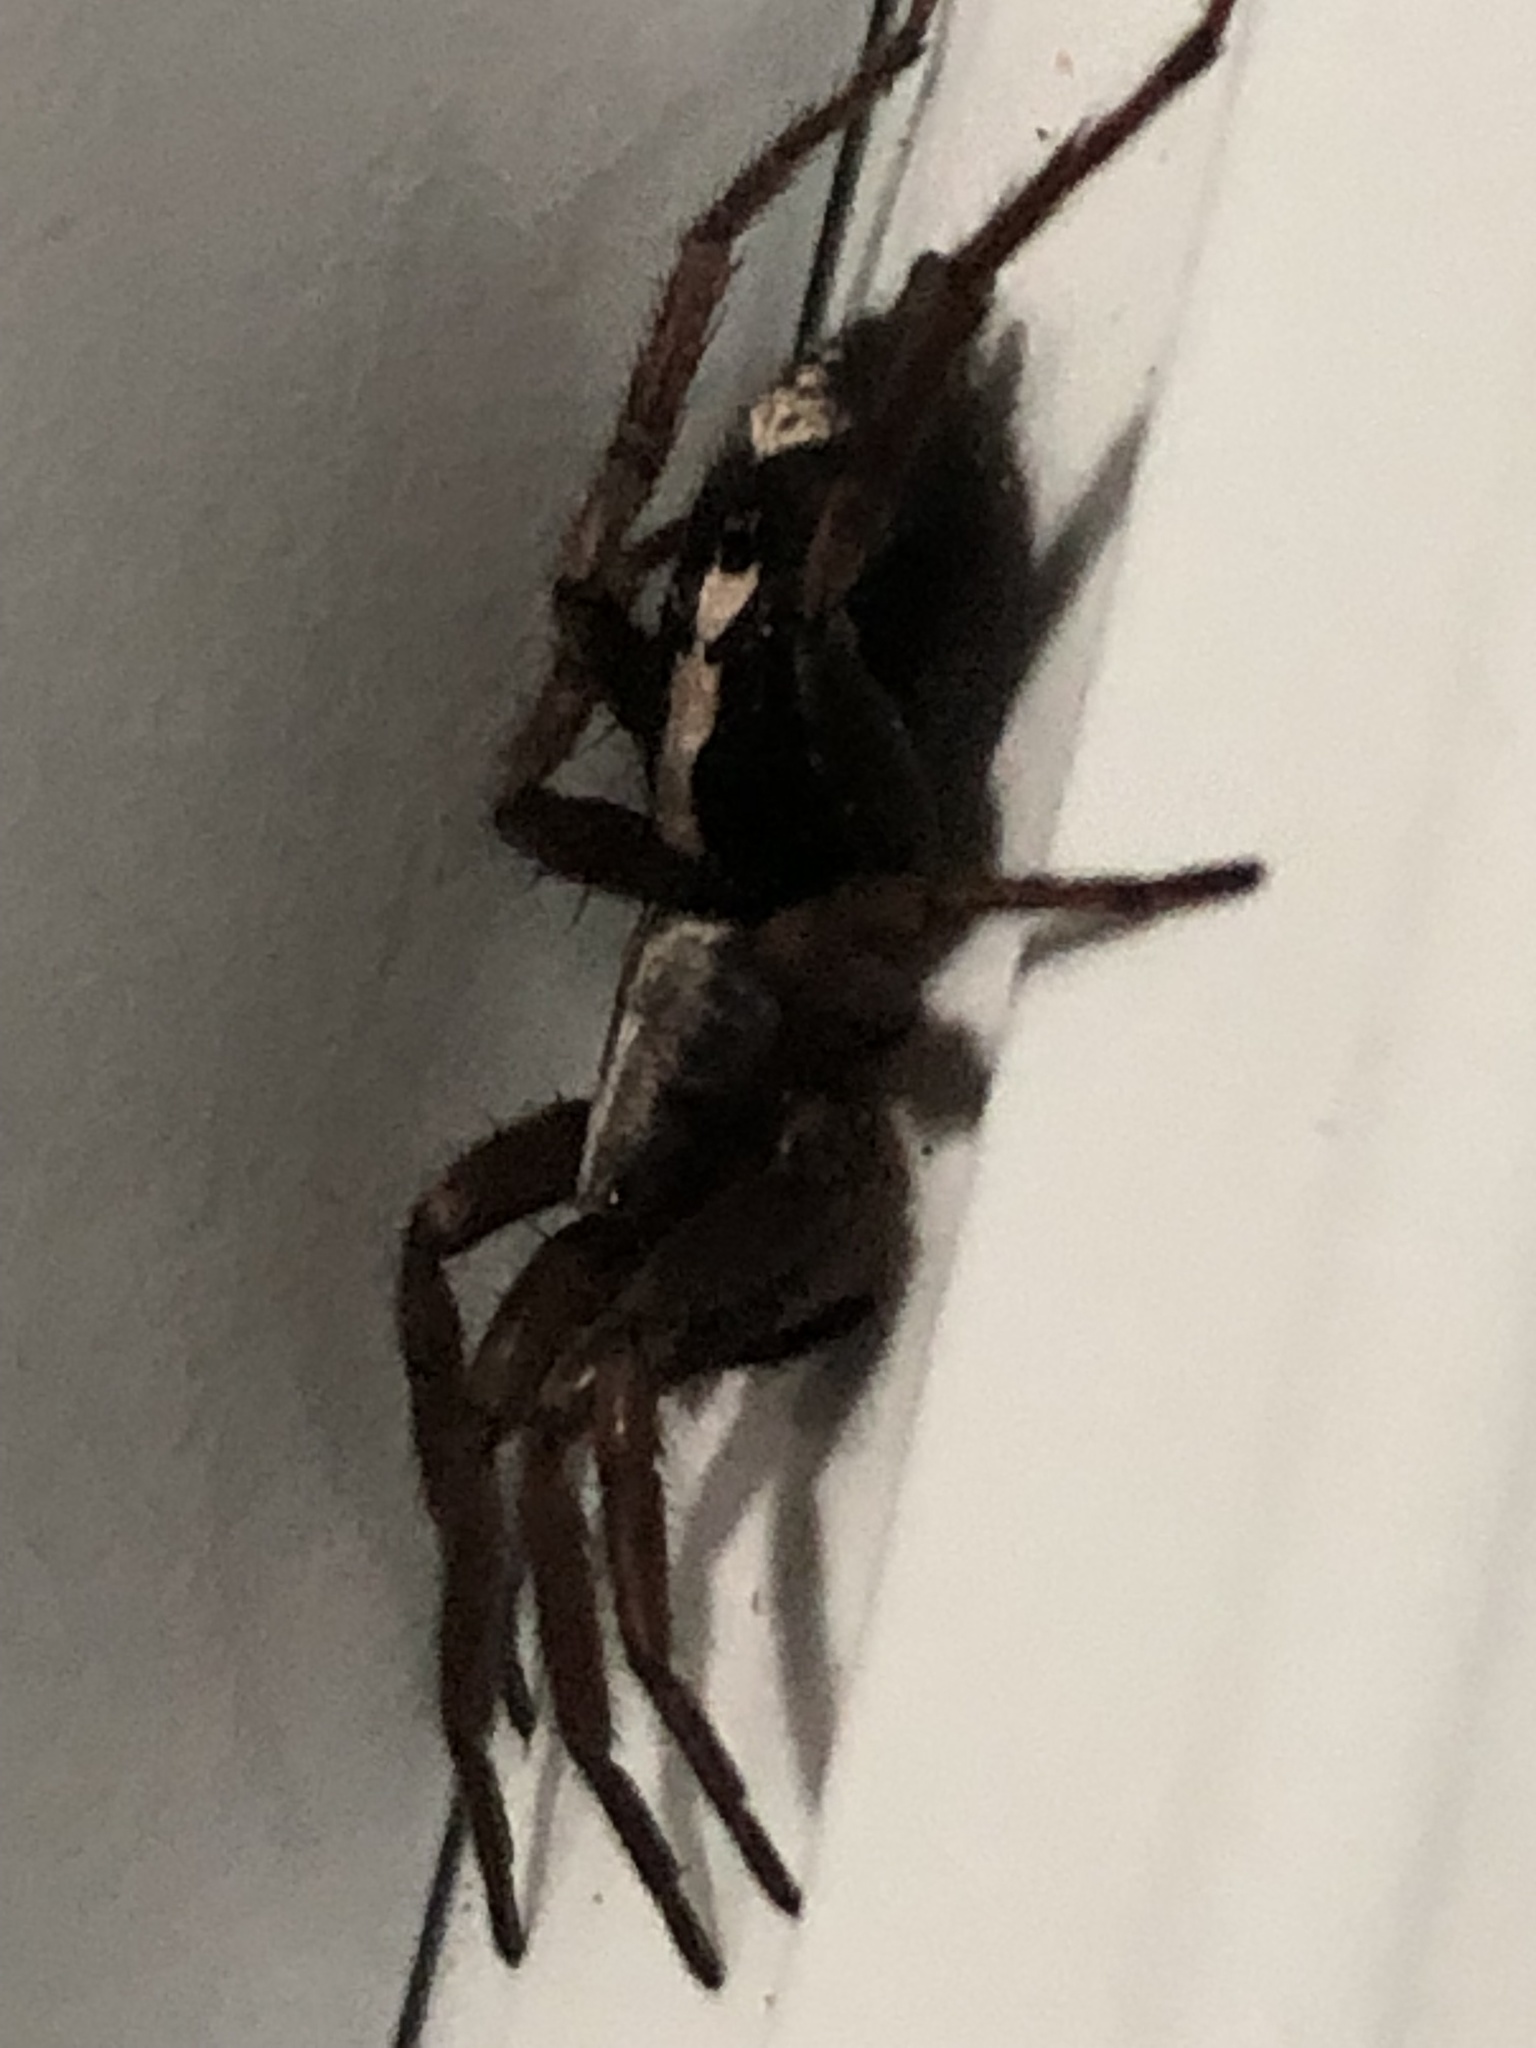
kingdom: Animalia
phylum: Arthropoda
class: Arachnida
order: Araneae
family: Gnaphosidae
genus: Herpyllus
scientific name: Herpyllus ecclesiasticus
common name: Eastern parson spider
